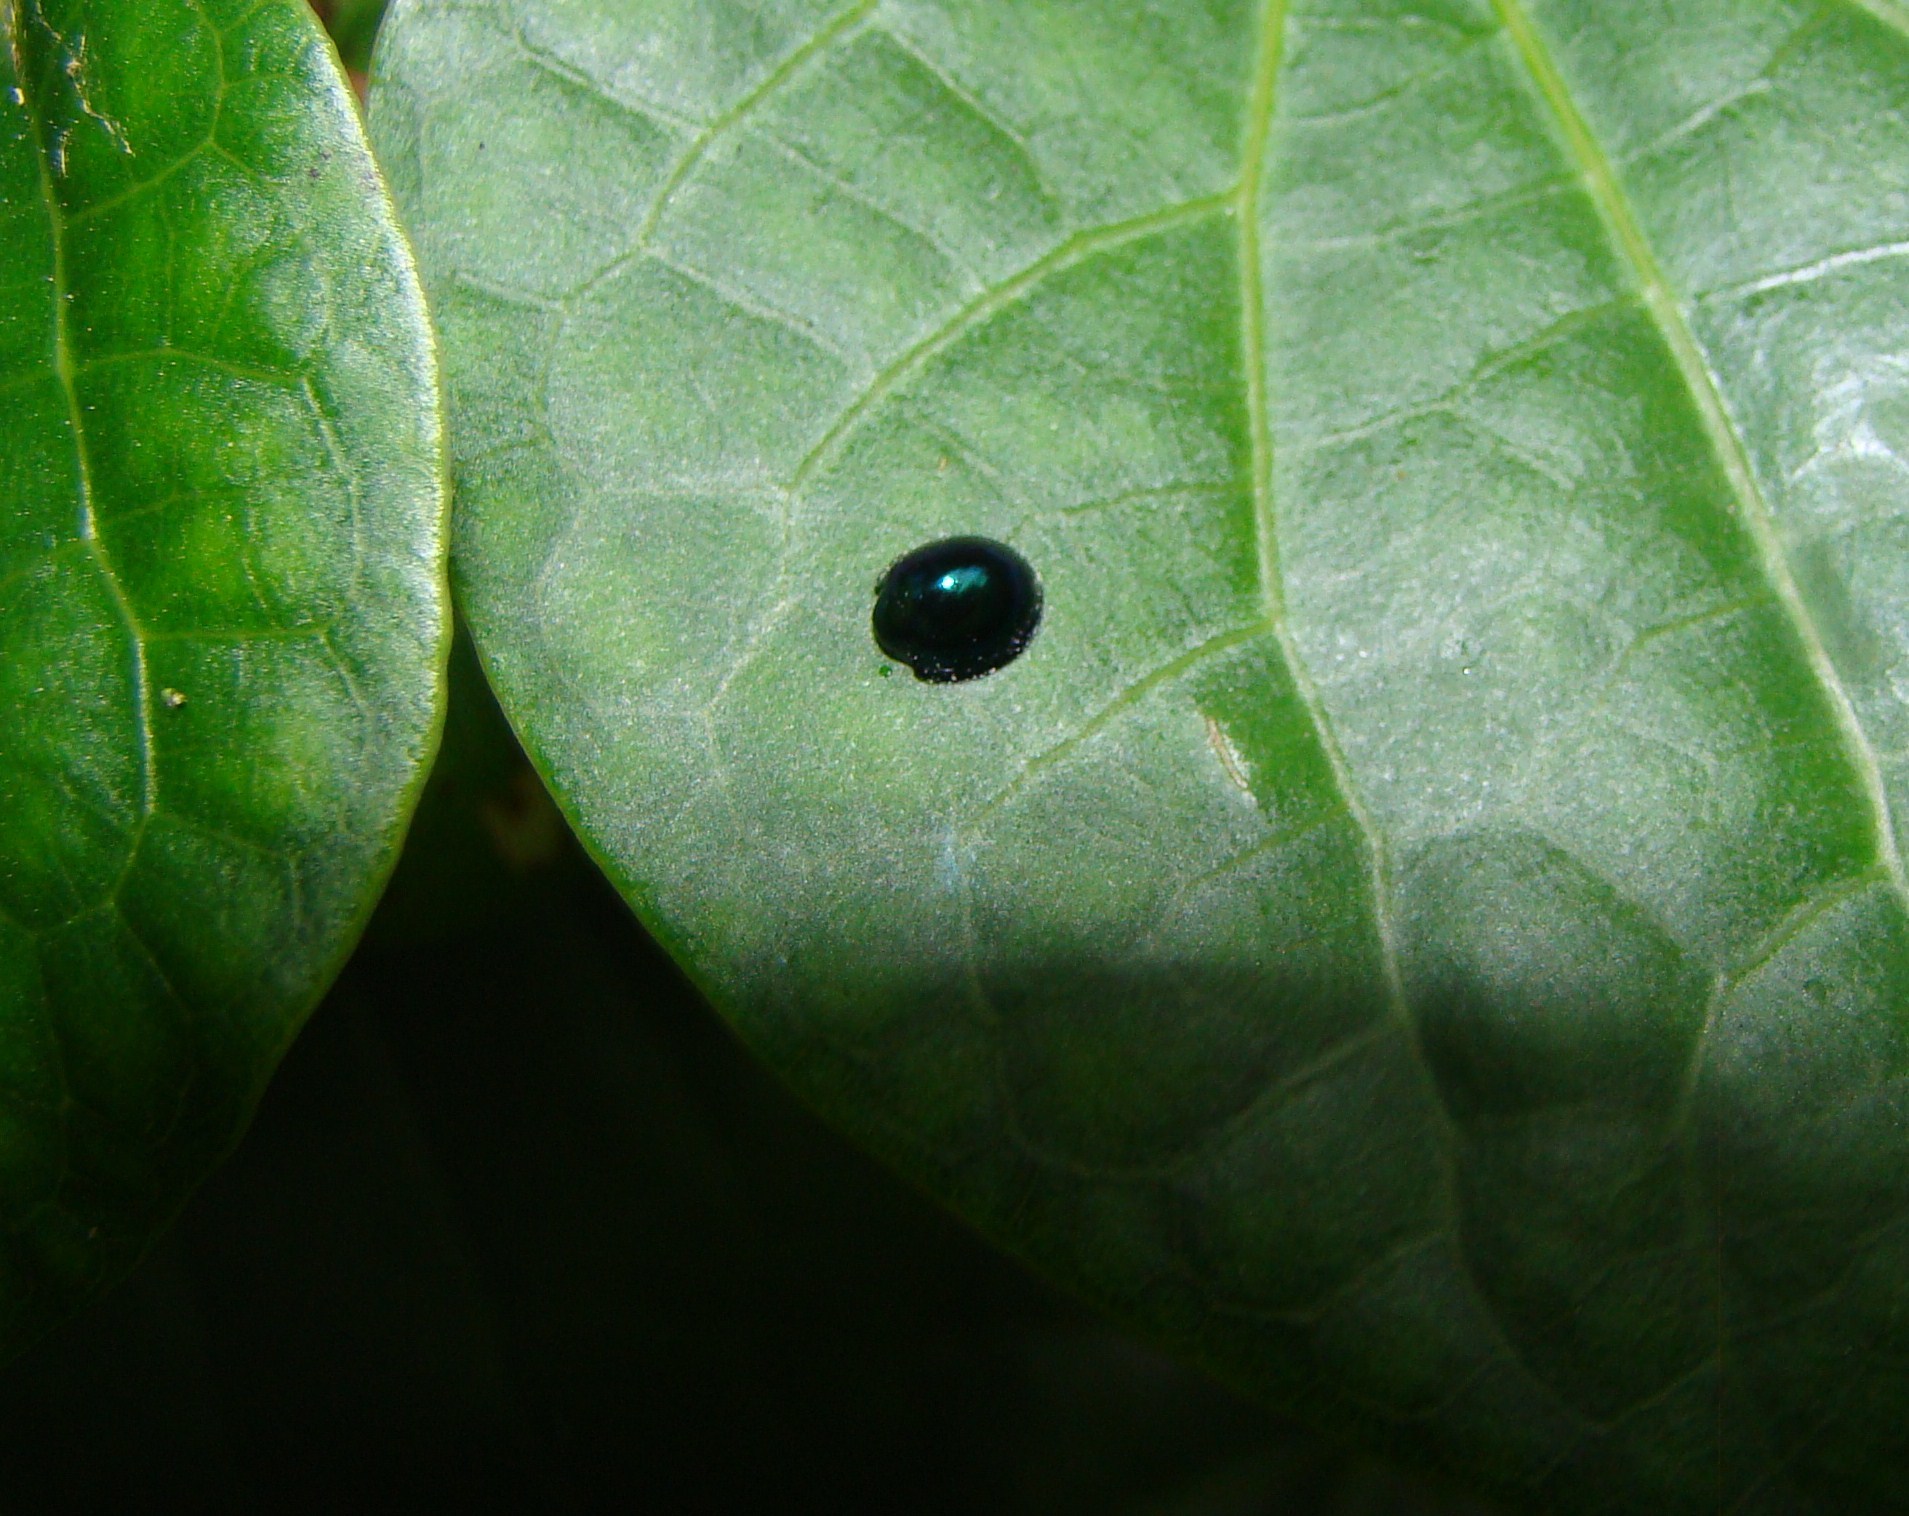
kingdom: Animalia
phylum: Arthropoda
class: Insecta
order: Coleoptera
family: Coccinellidae
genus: Halmus
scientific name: Halmus chalybeus
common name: Steel blue ladybird beetle
